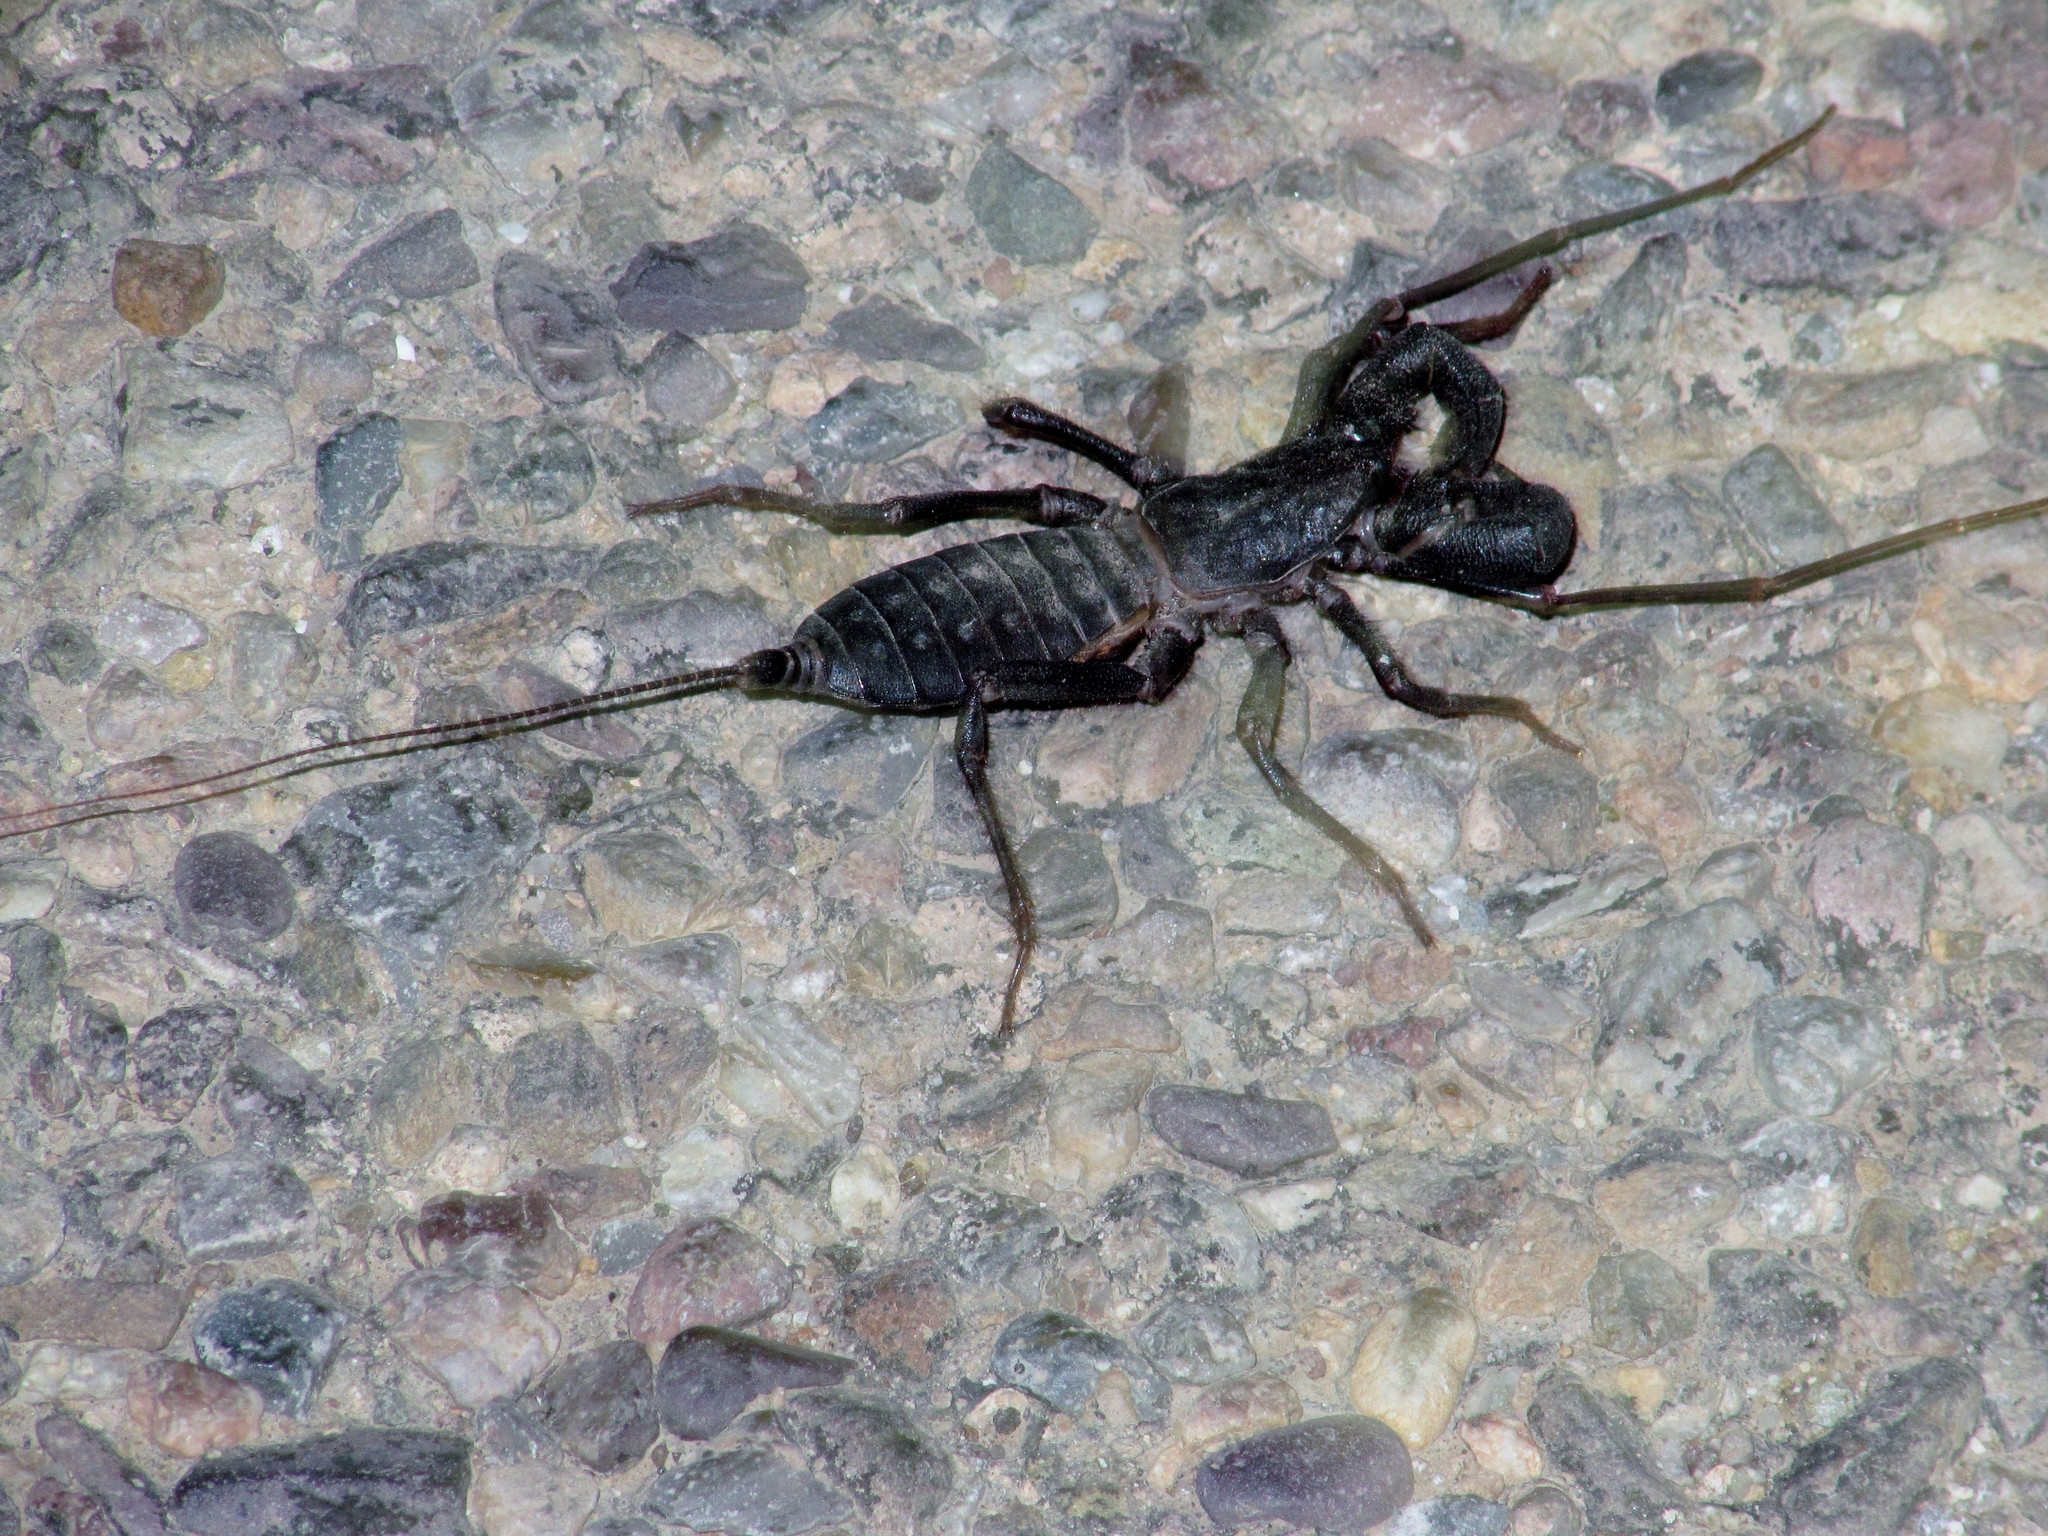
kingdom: Animalia
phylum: Arthropoda
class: Arachnida
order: Uropygi
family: Thelyphonidae
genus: Mastigoproctus
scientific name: Mastigoproctus tohono
